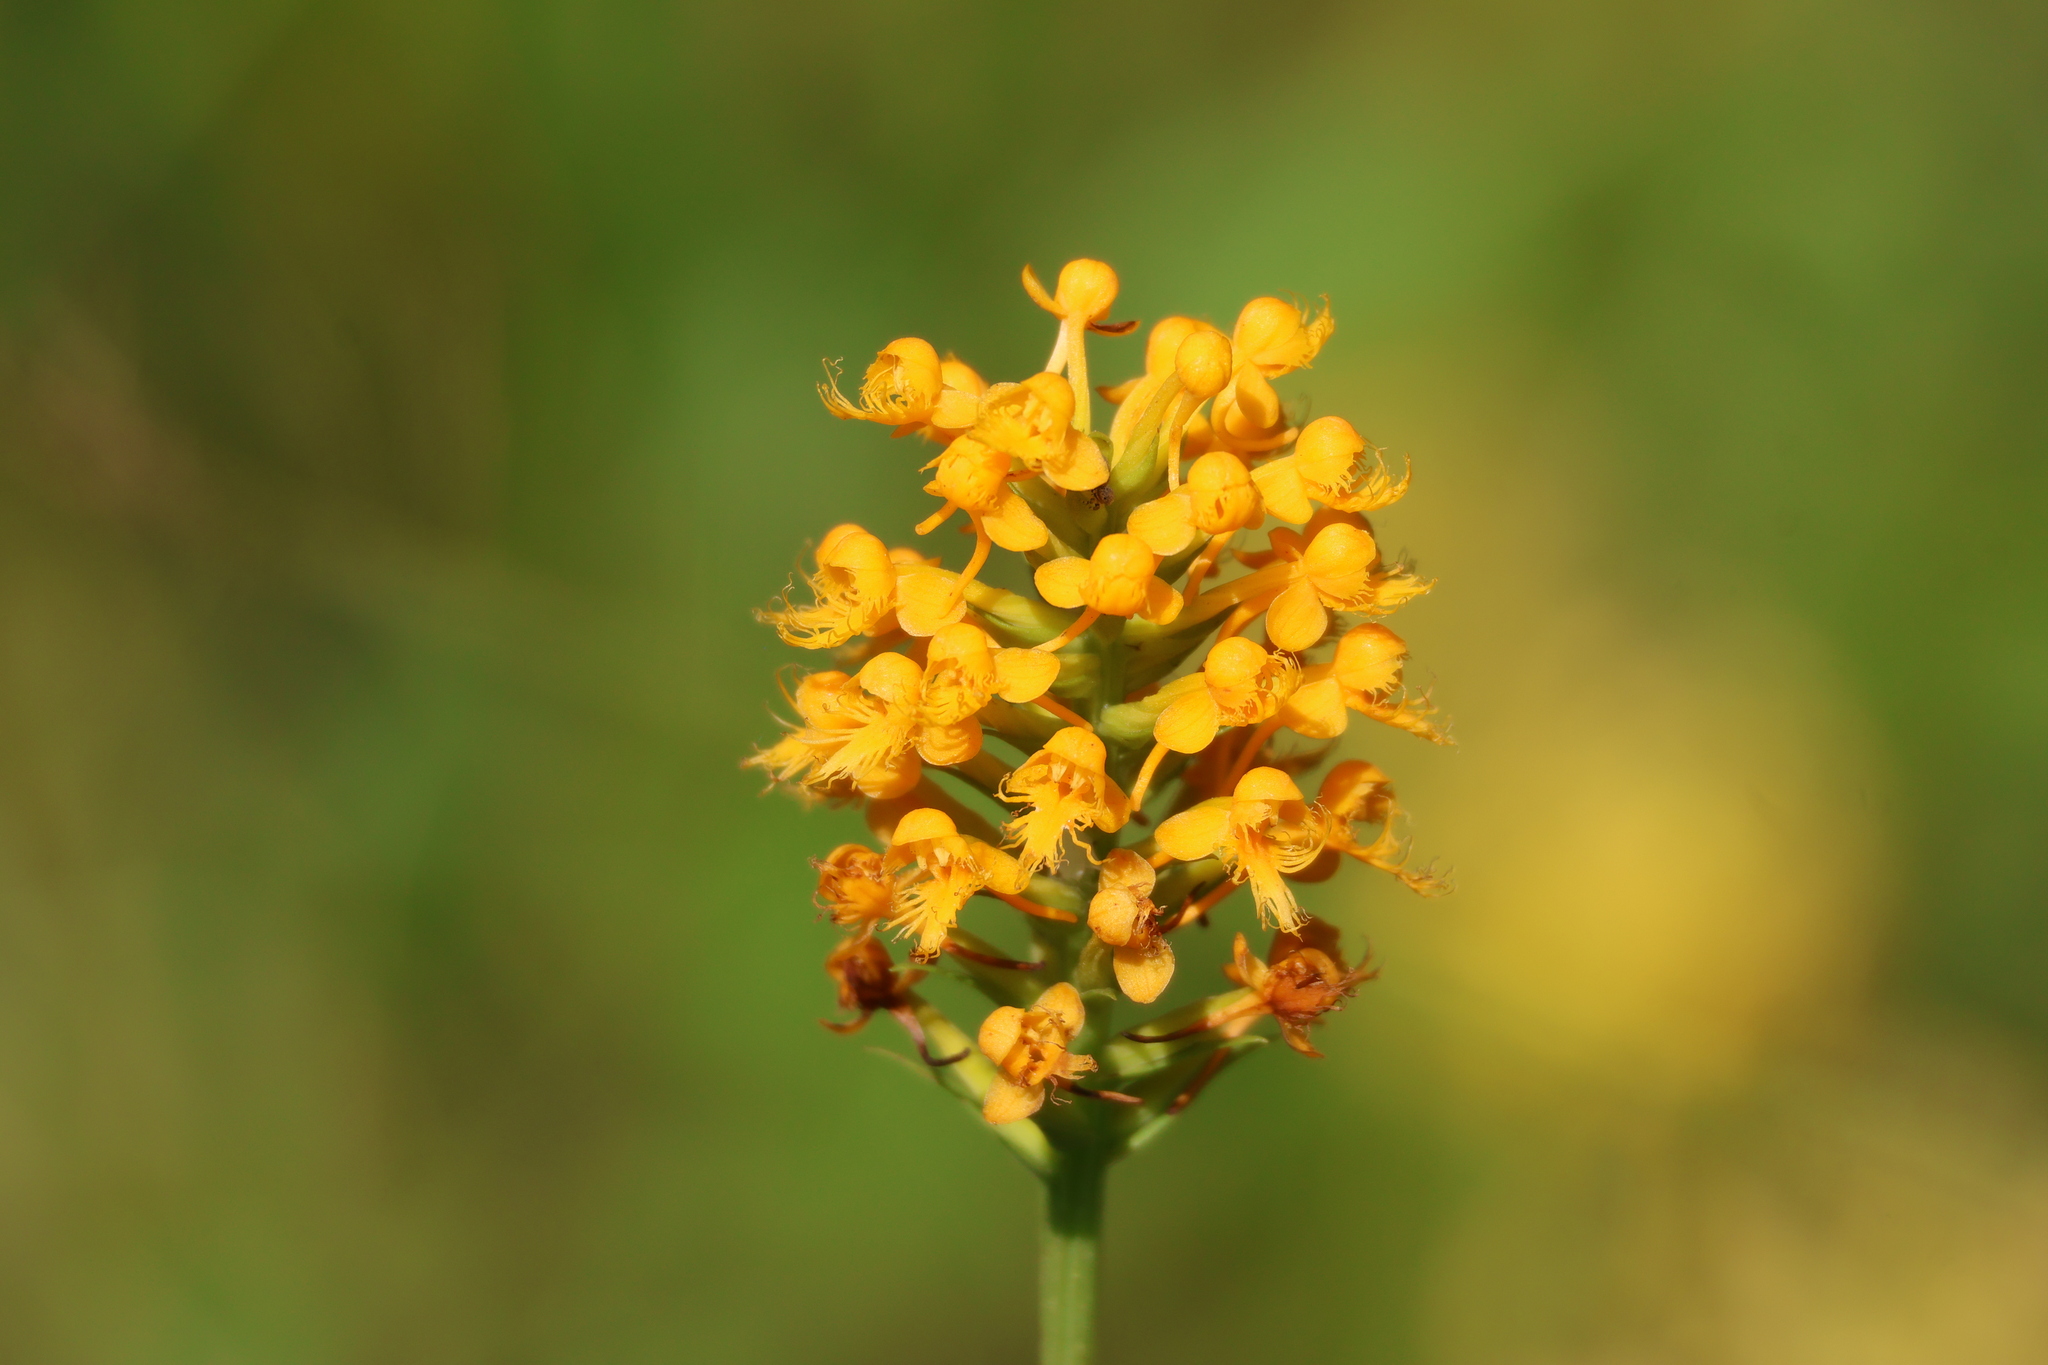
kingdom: Plantae
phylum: Tracheophyta
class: Liliopsida
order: Asparagales
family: Orchidaceae
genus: Platanthera
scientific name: Platanthera cristata
